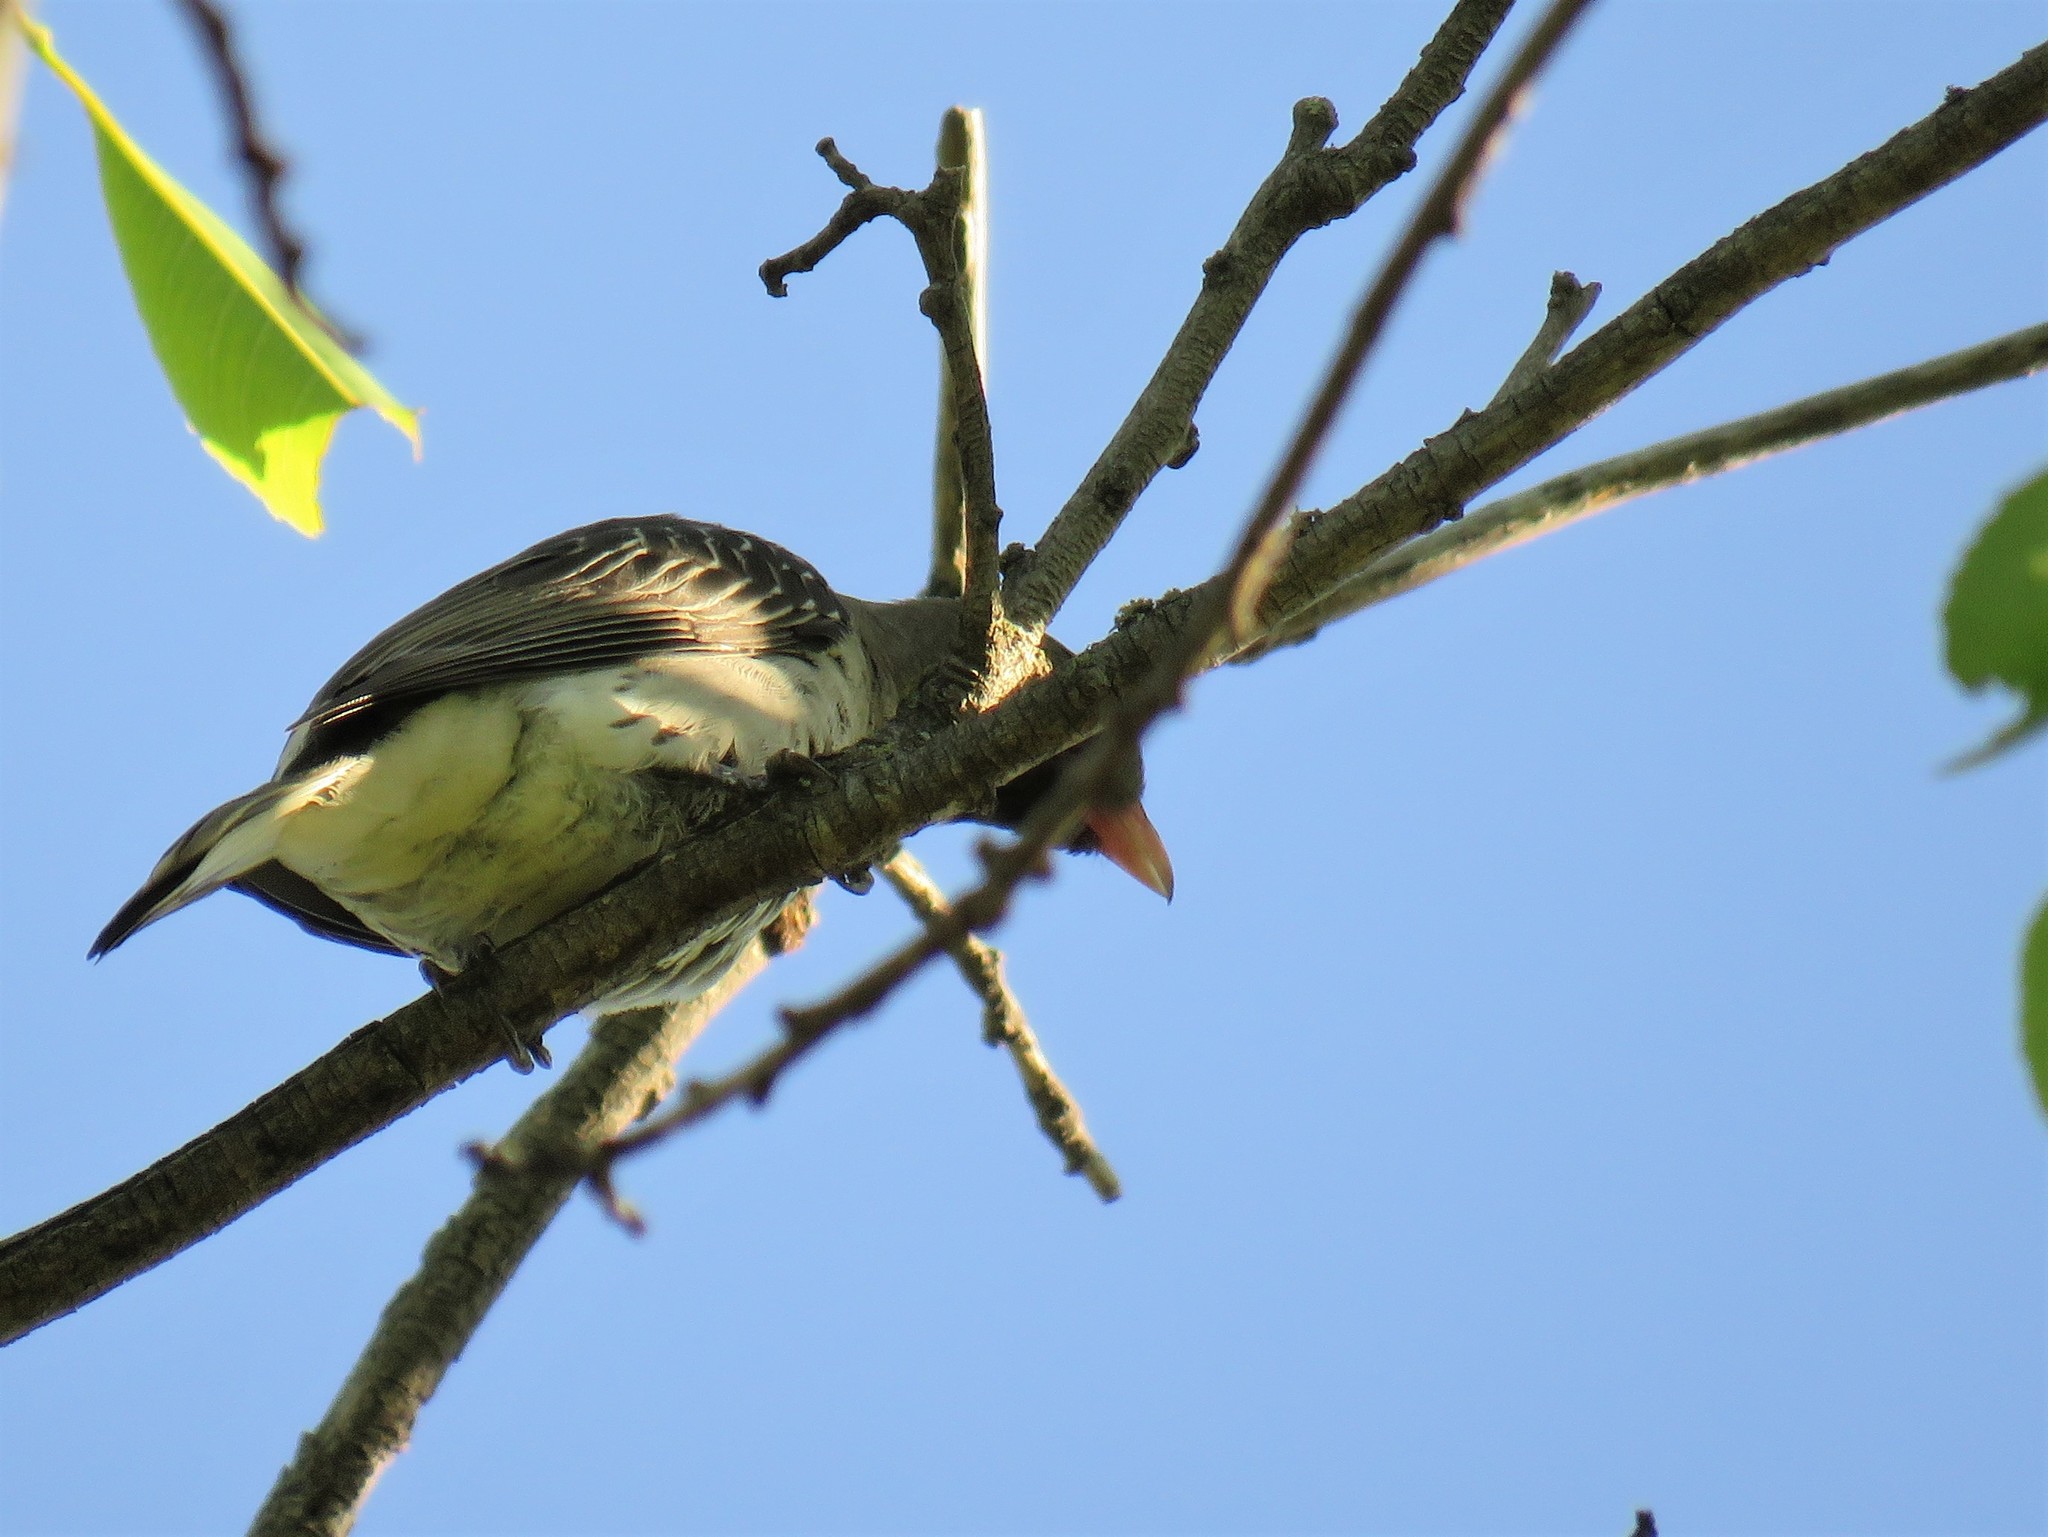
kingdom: Animalia
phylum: Chordata
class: Aves
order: Piciformes
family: Indicatoridae
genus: Indicator
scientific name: Indicator indicator
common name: Greater honeyguide
